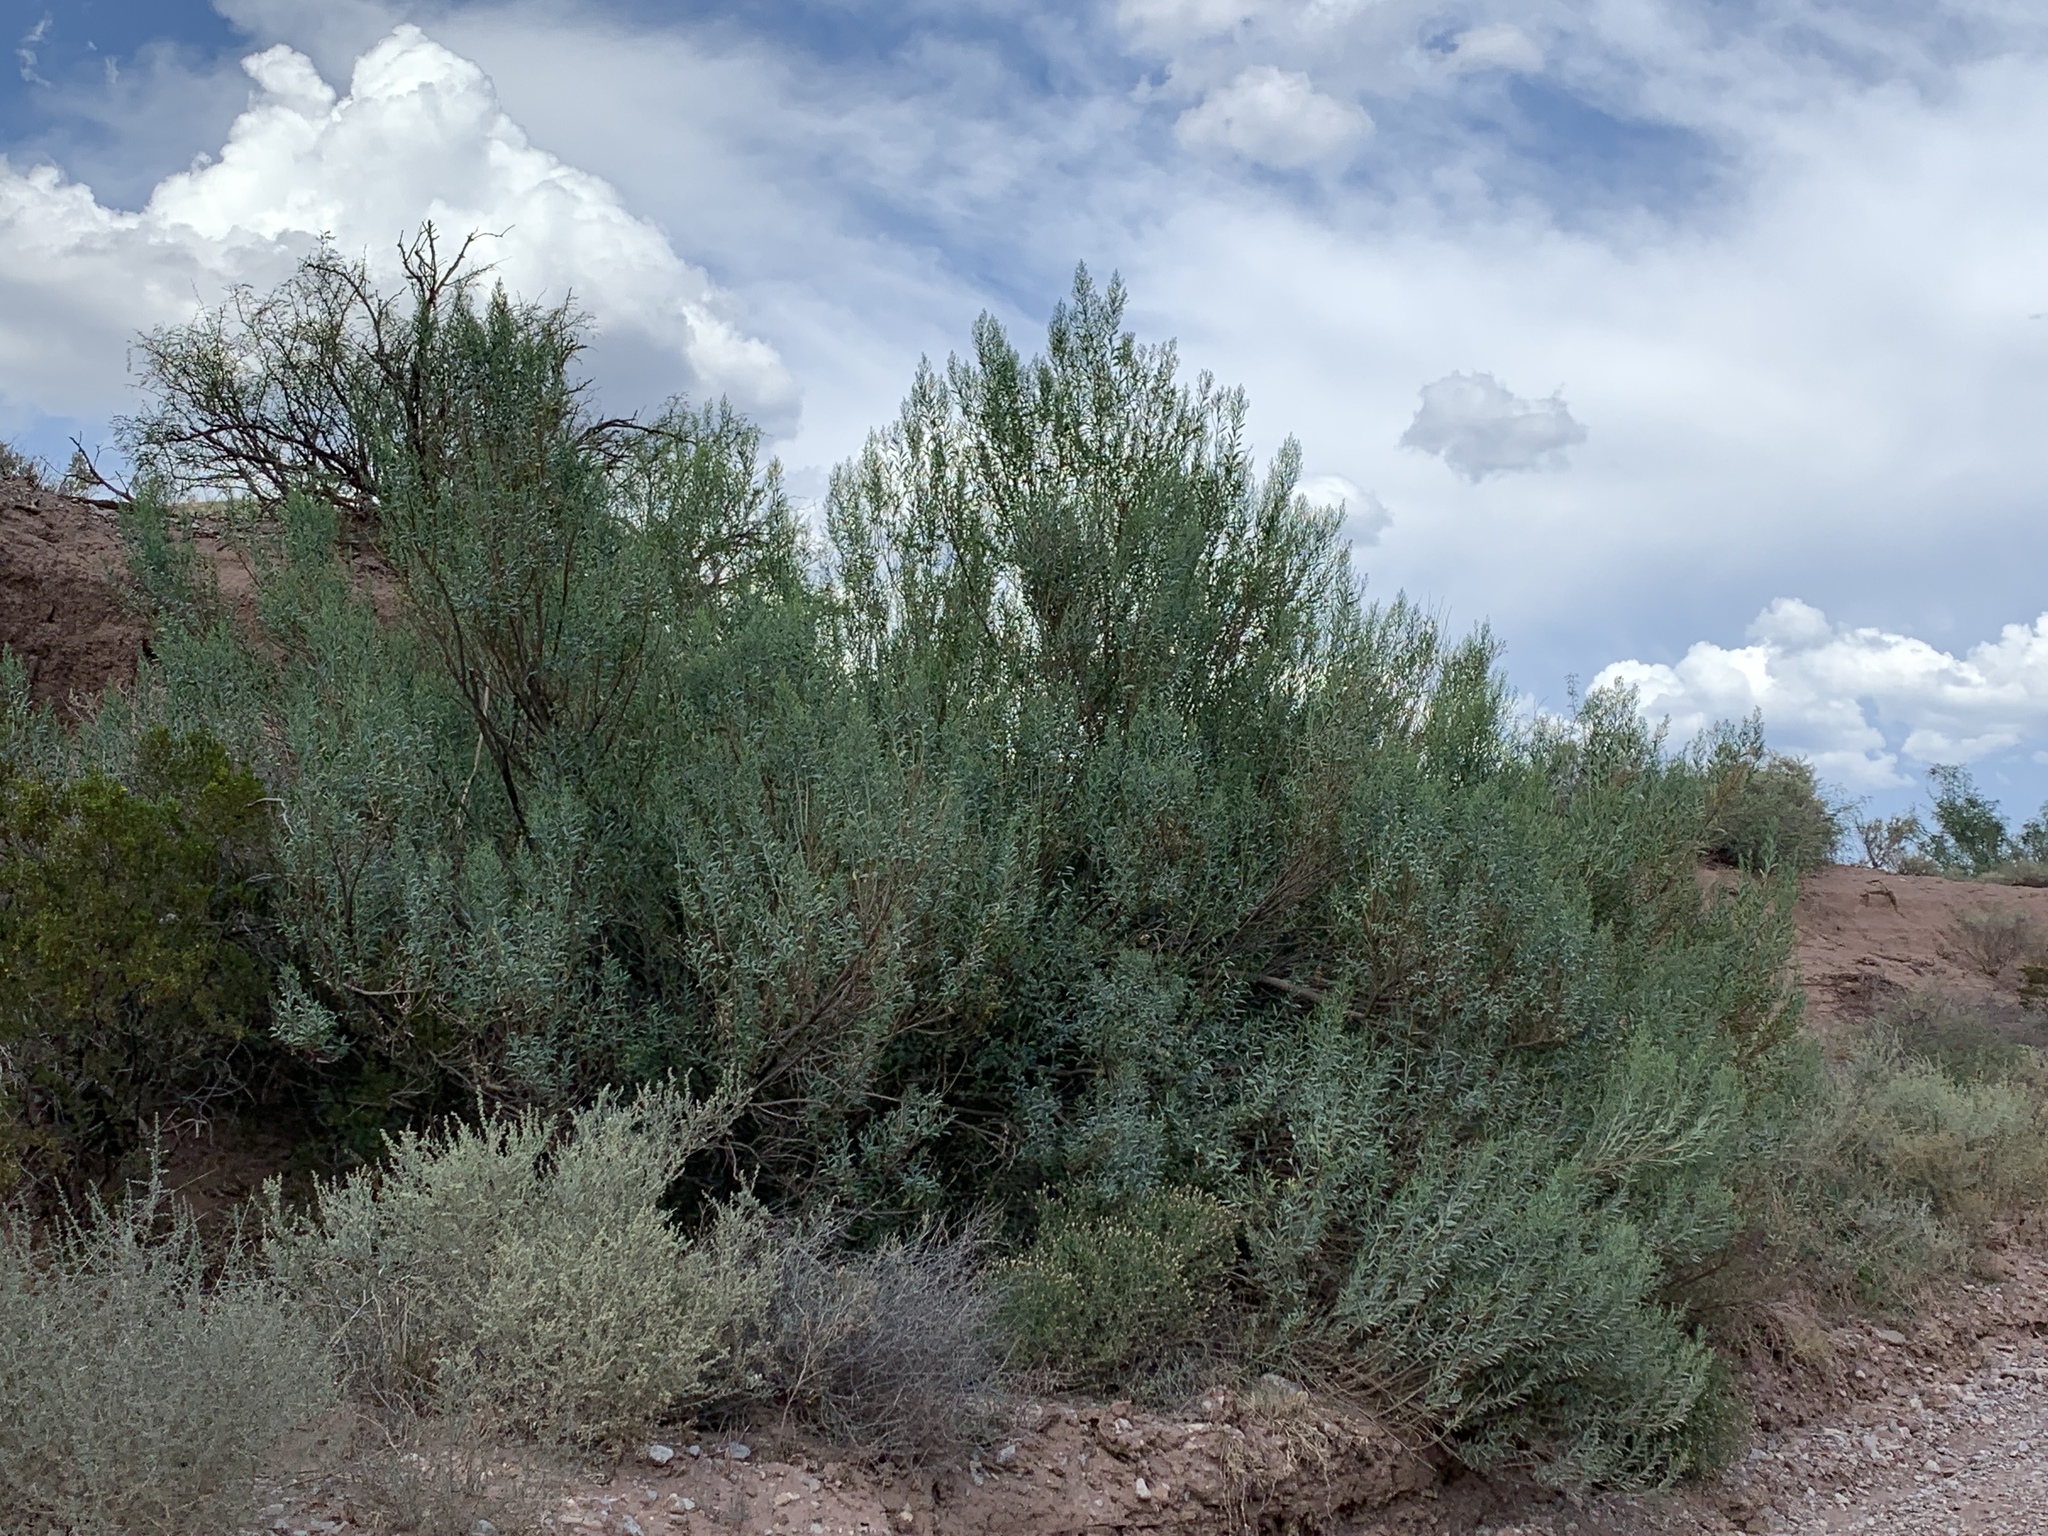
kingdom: Plantae
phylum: Tracheophyta
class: Magnoliopsida
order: Asterales
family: Asteraceae
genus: Baccharis
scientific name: Baccharis salicina
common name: Willow baccharis
